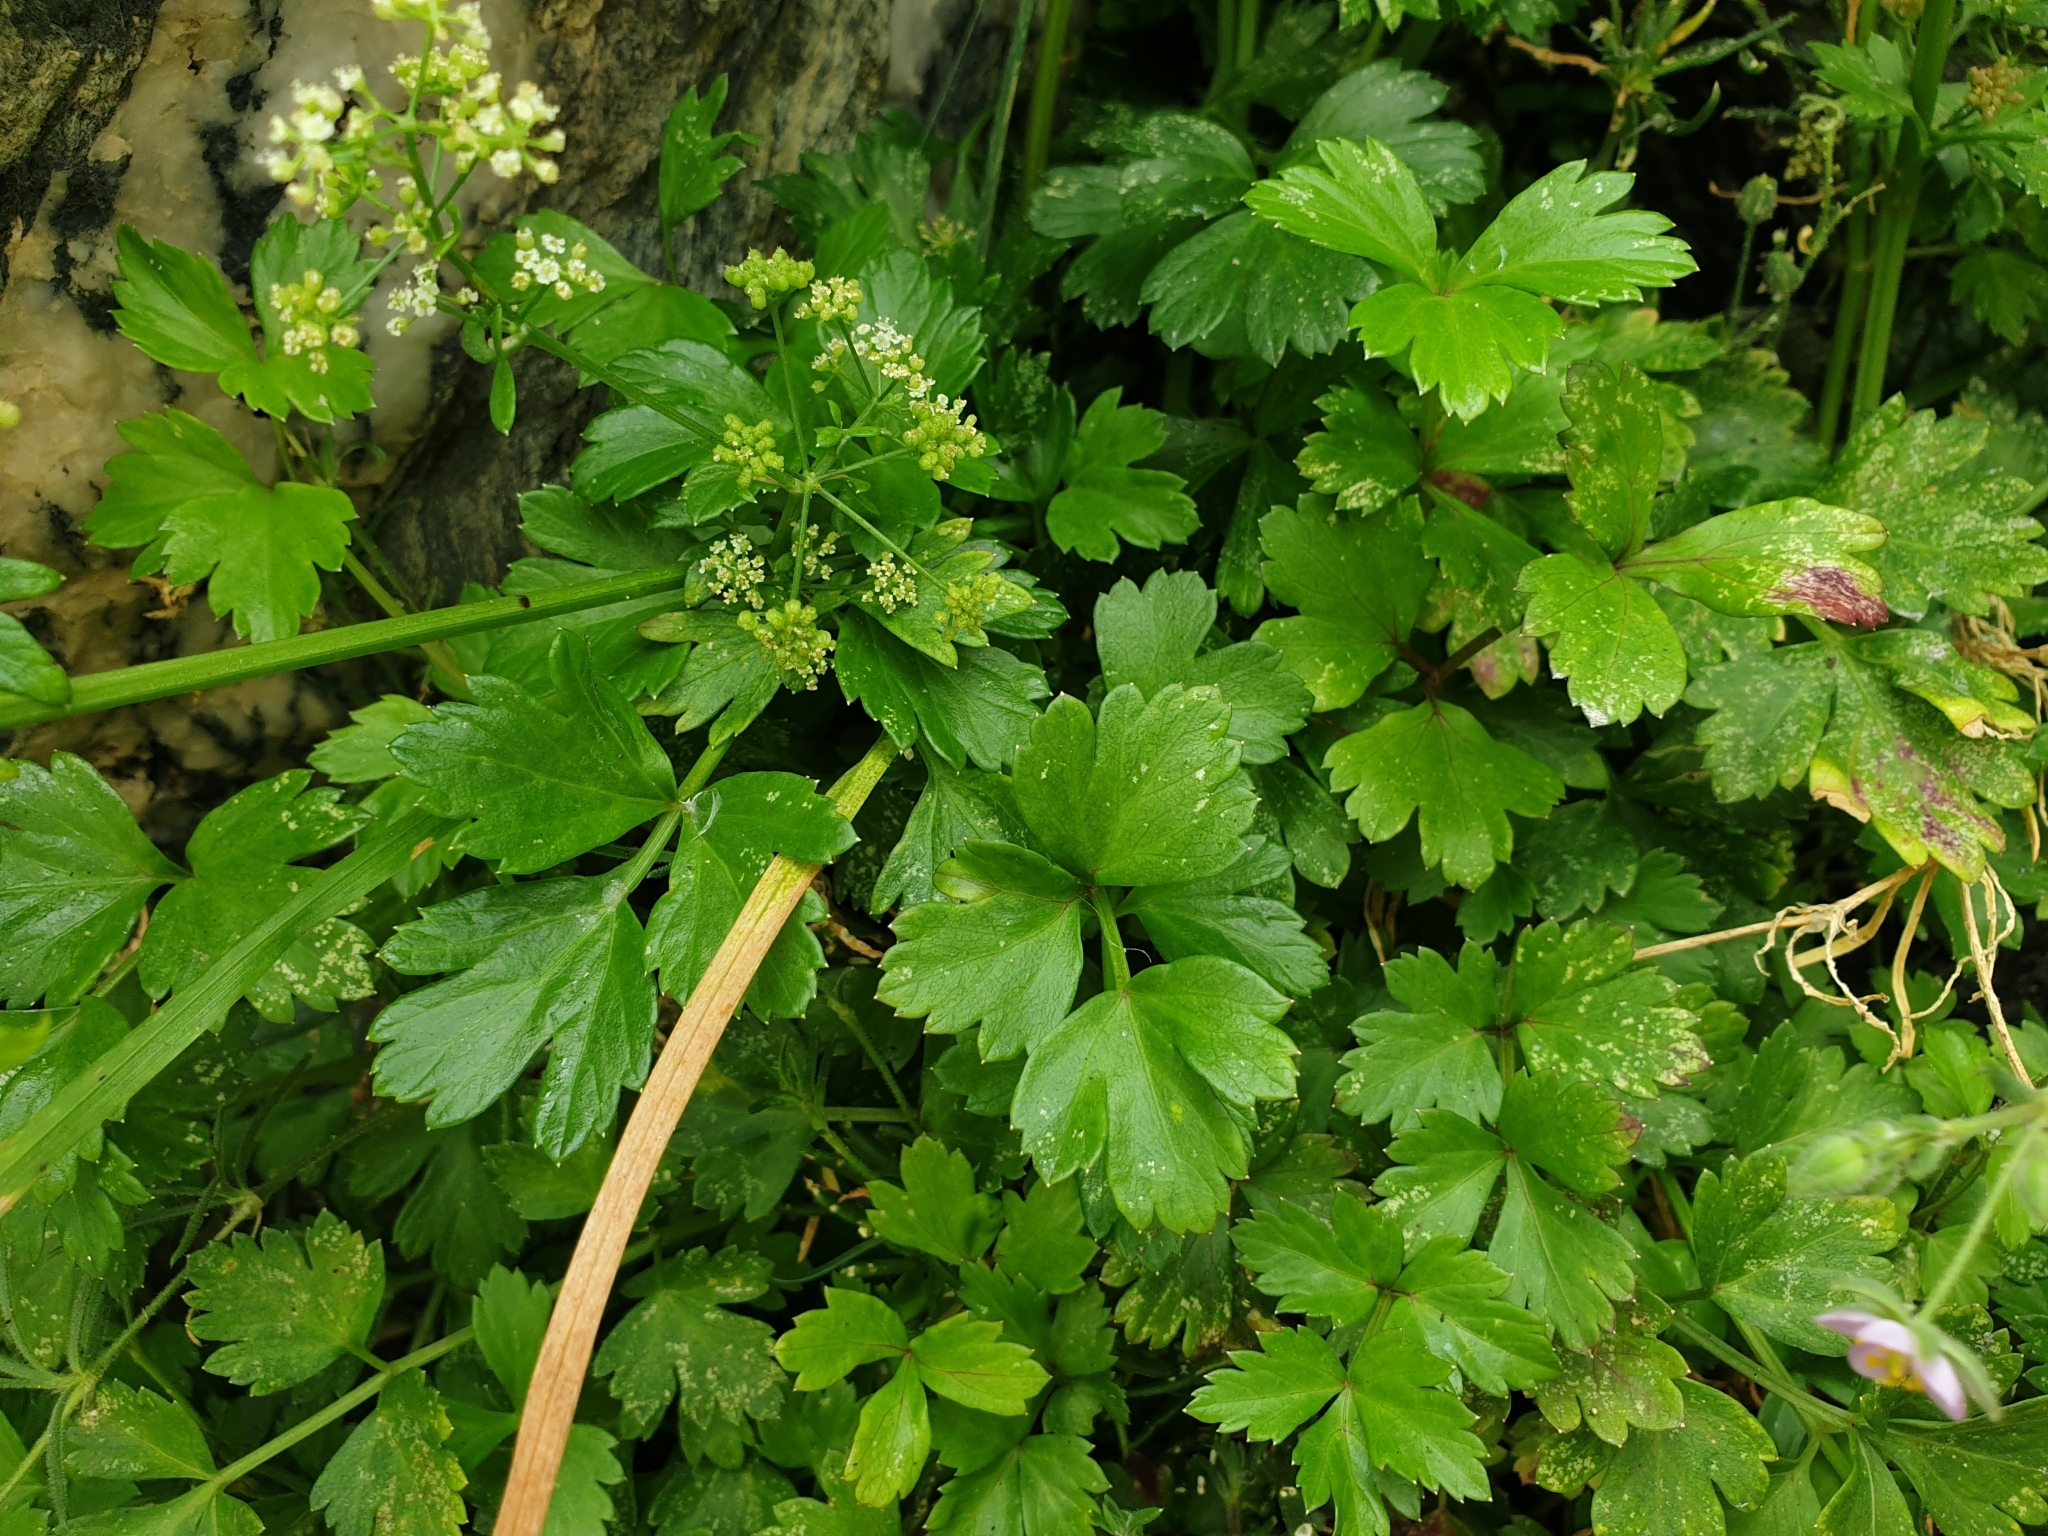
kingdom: Plantae
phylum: Tracheophyta
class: Magnoliopsida
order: Apiales
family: Apiaceae
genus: Apium
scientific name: Apium graveolens
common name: Wild celery
